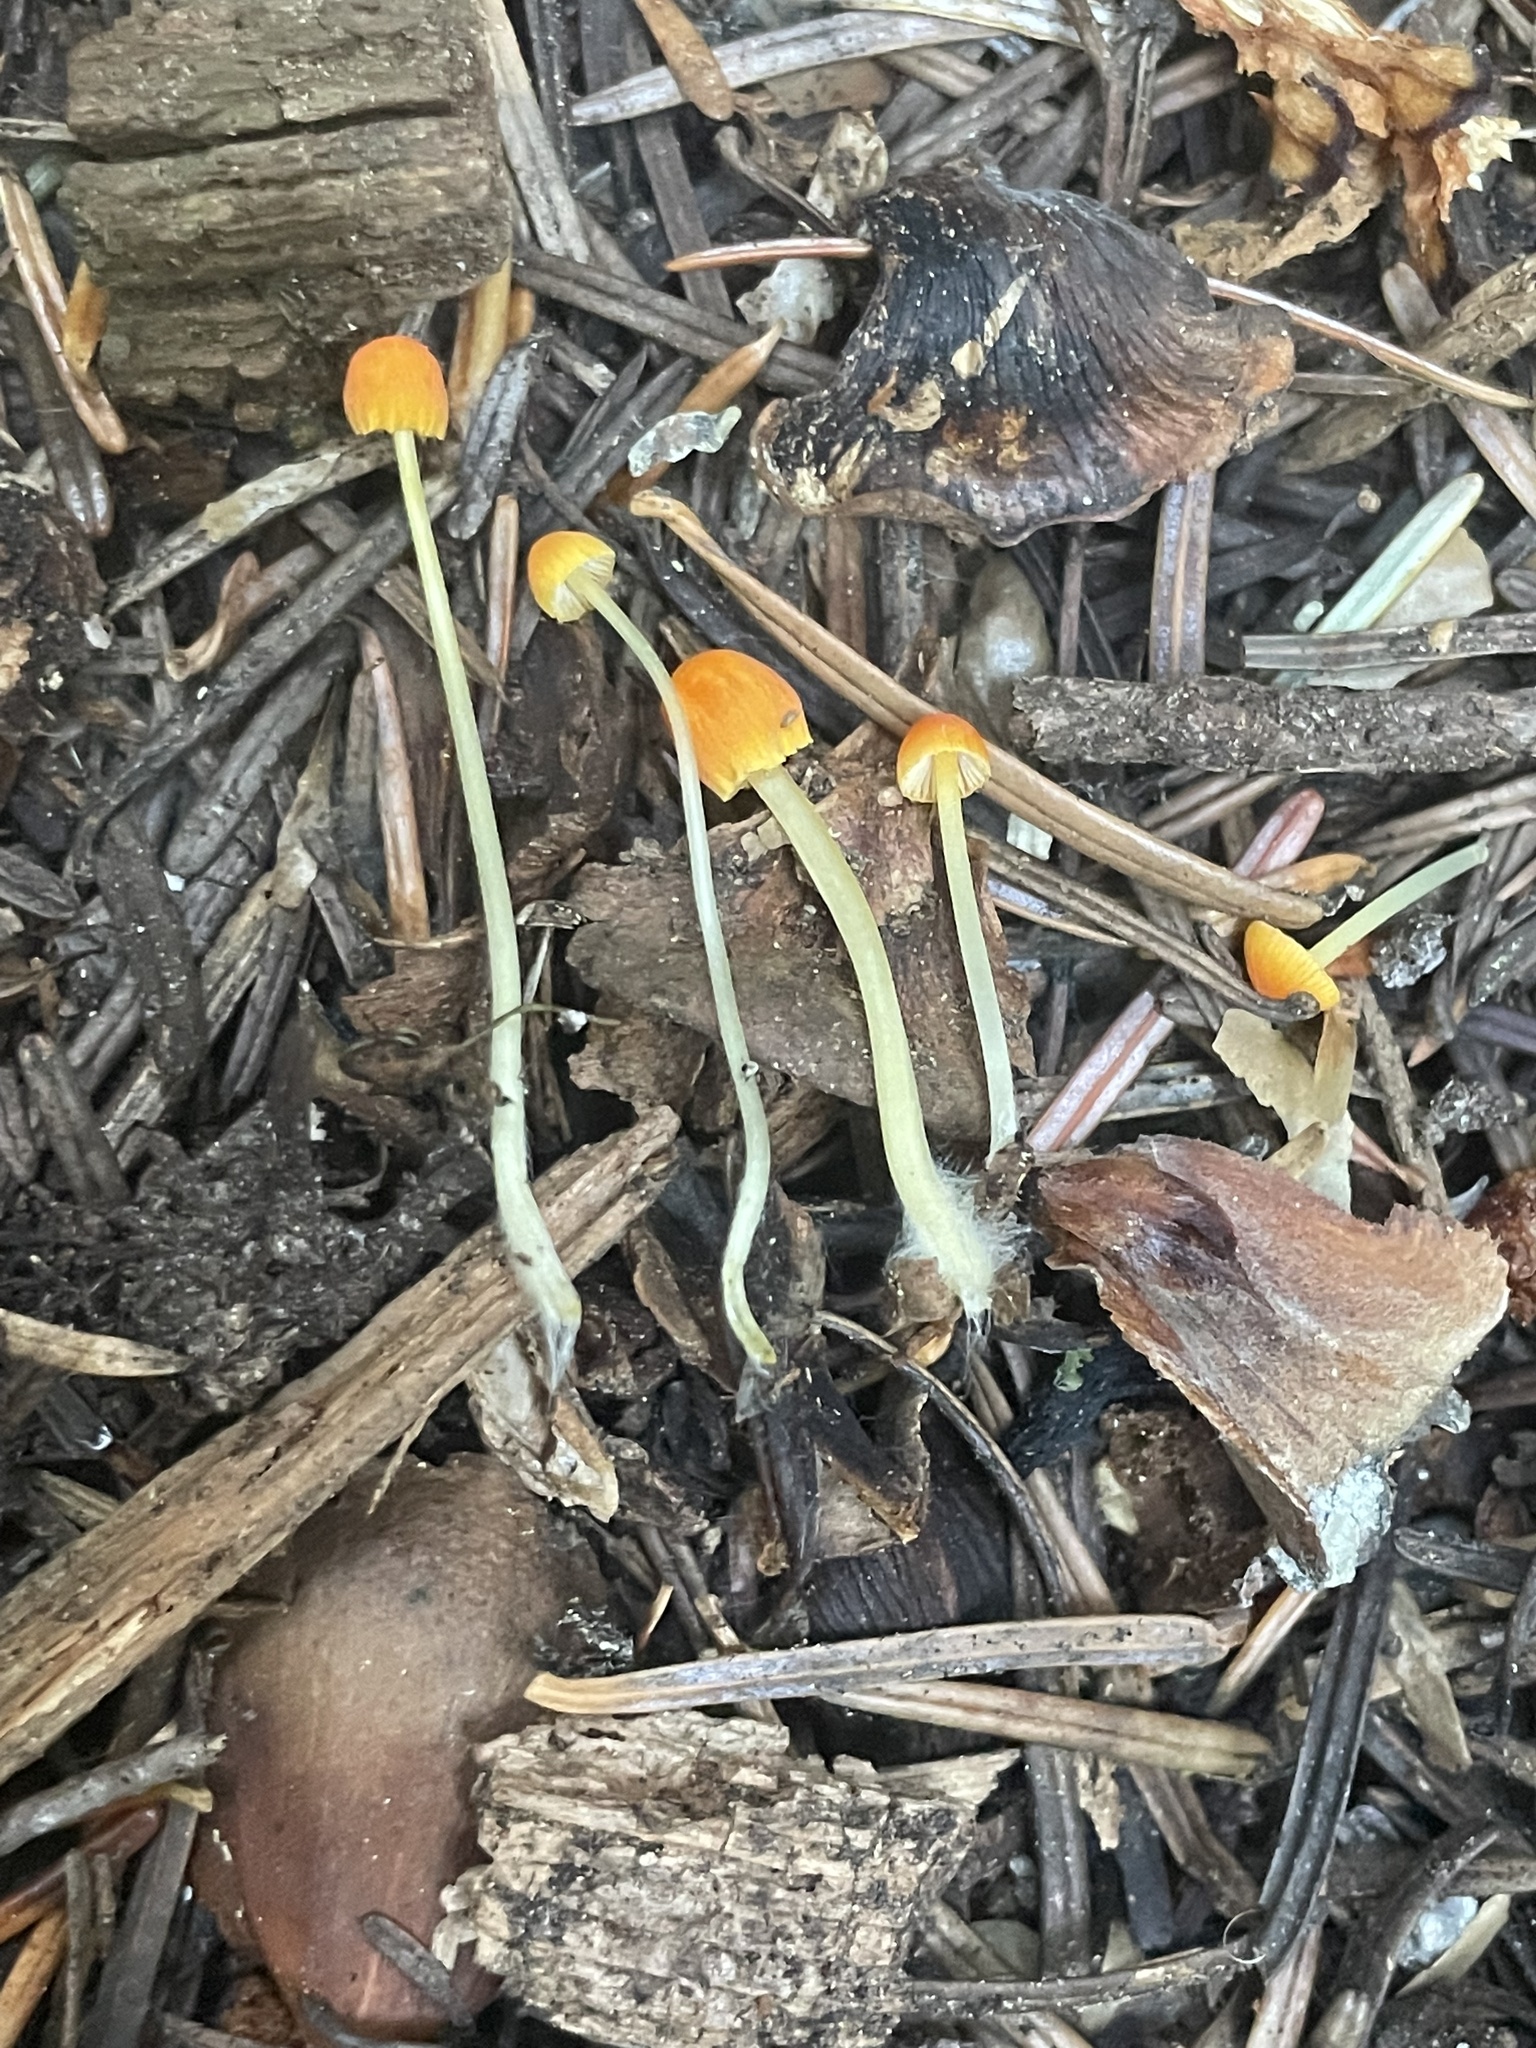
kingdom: Fungi
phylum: Basidiomycota
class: Agaricomycetes
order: Agaricales
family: Mycenaceae
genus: Atheniella
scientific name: Atheniella aurantiidisca
